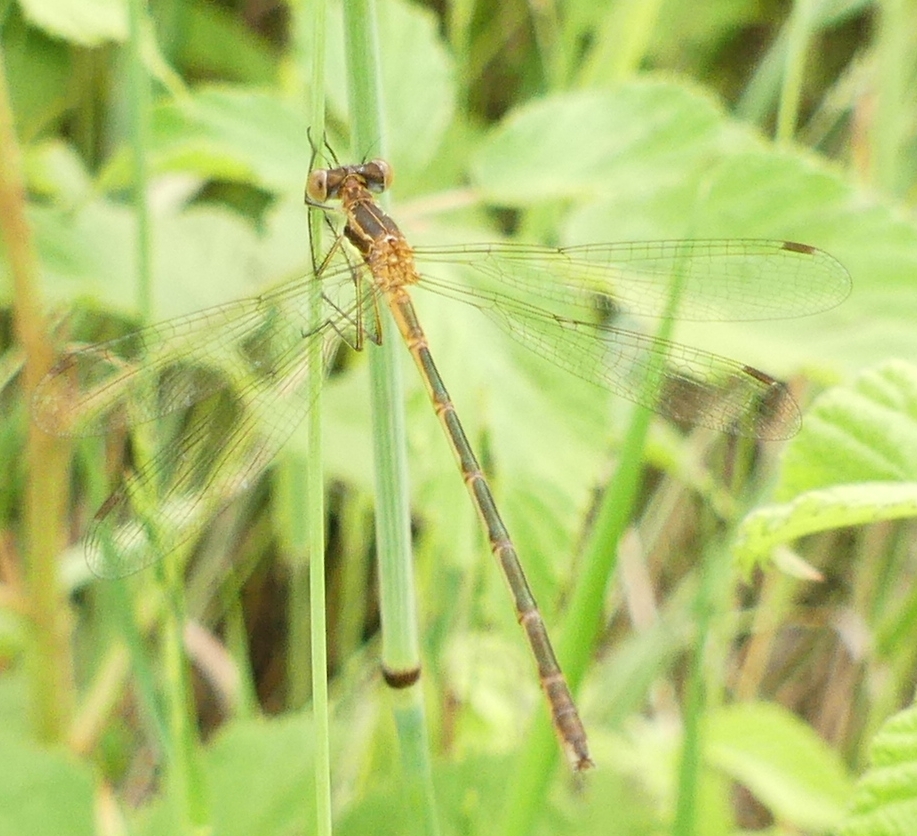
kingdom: Animalia
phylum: Arthropoda
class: Insecta
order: Odonata
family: Lestidae
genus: Lestes
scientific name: Lestes disjunctus
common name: Northern spreadwing
